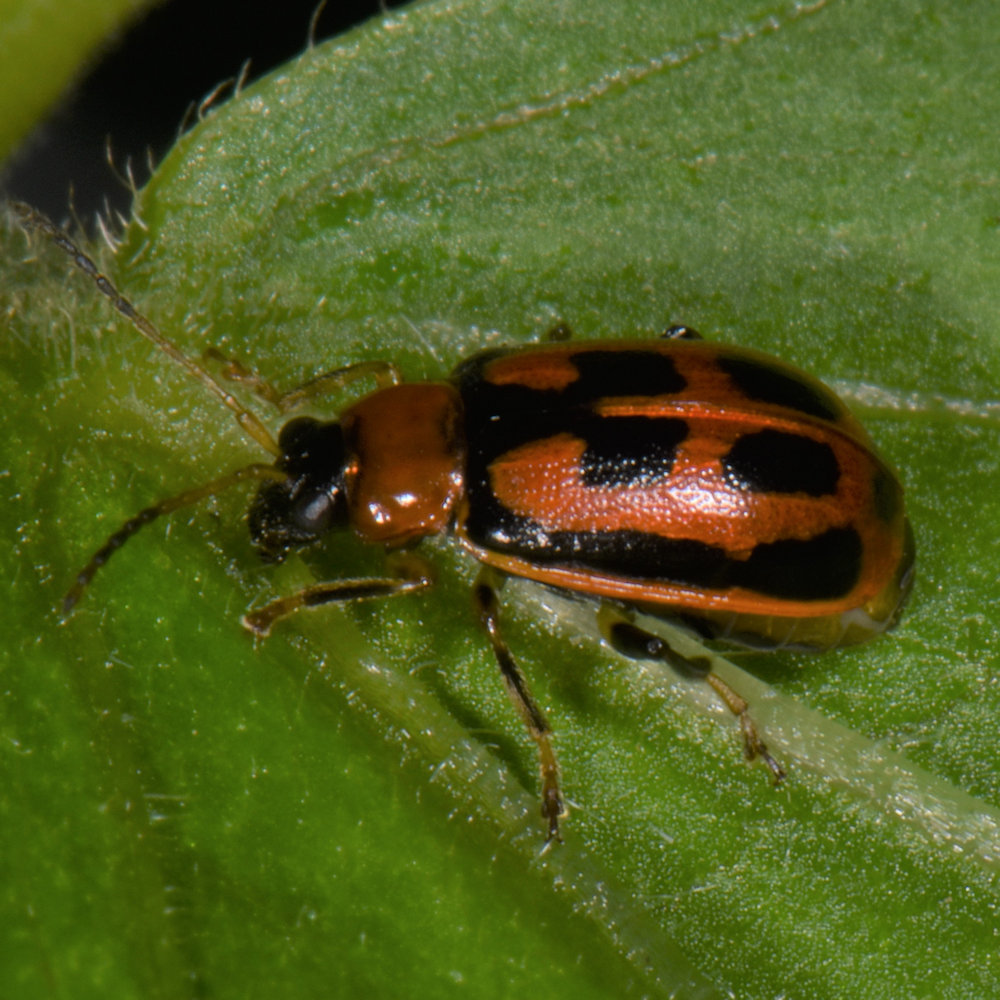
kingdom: Animalia
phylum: Arthropoda
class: Insecta
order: Coleoptera
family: Chrysomelidae
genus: Cerotoma
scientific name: Cerotoma trifurcata
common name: Bean leaf beetle
